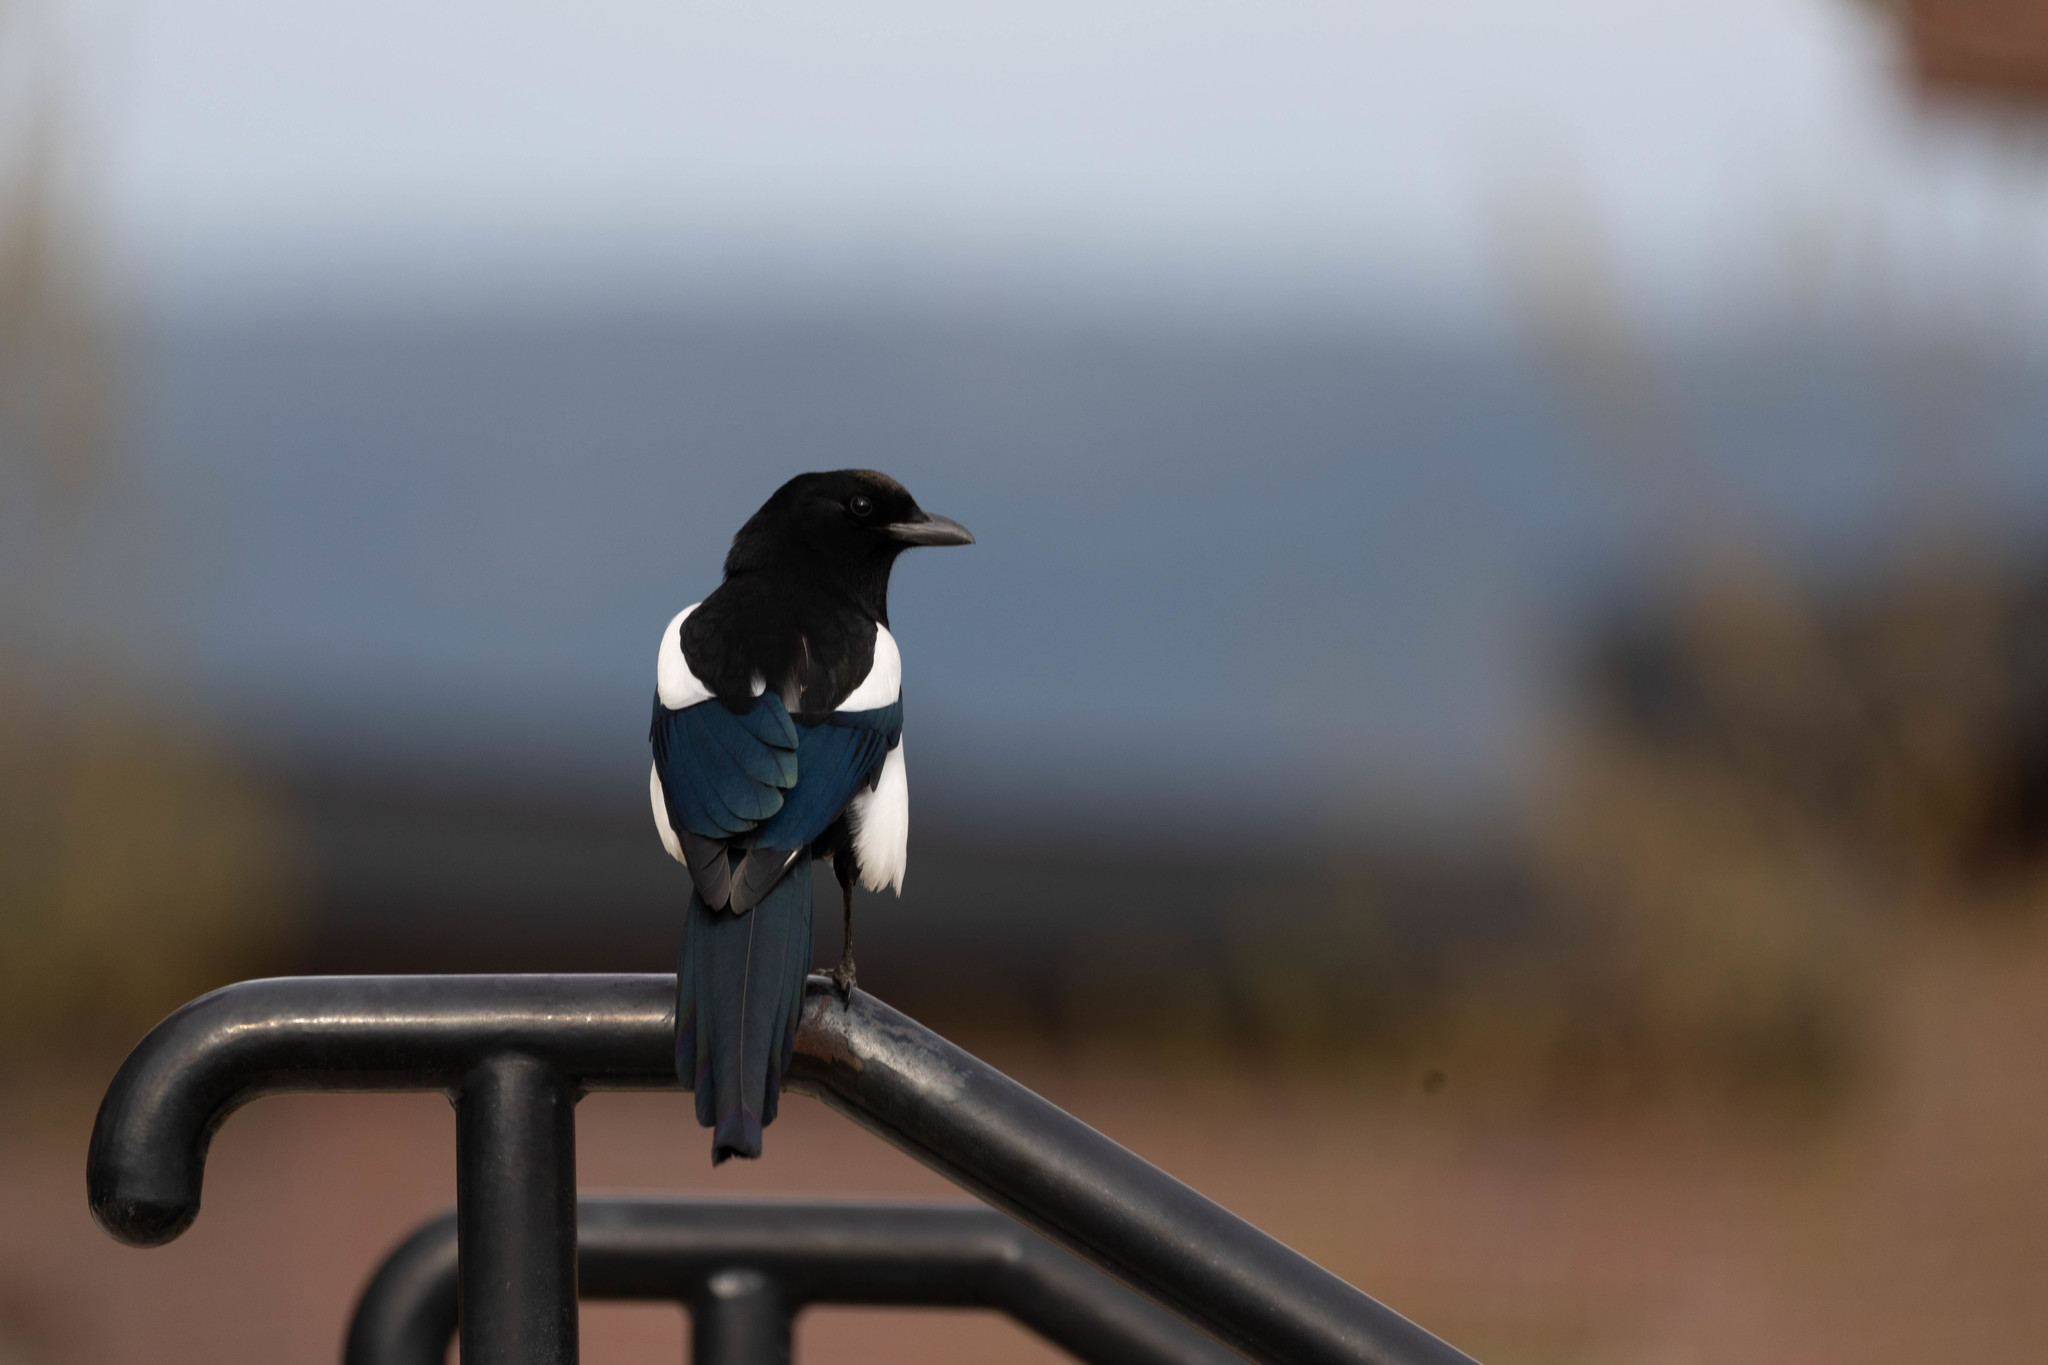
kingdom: Animalia
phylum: Chordata
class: Aves
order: Passeriformes
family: Corvidae
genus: Pica
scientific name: Pica hudsonia
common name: Black-billed magpie
